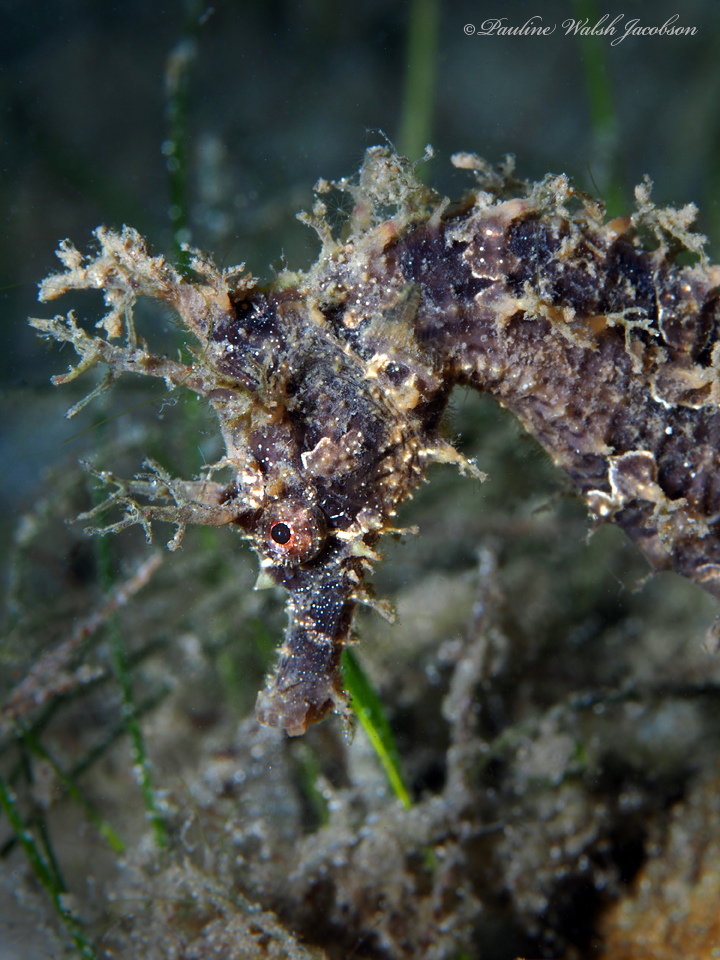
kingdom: Animalia
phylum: Chordata
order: Syngnathiformes
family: Syngnathidae
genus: Hippocampus
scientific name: Hippocampus erectus
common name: Lined seahorse
